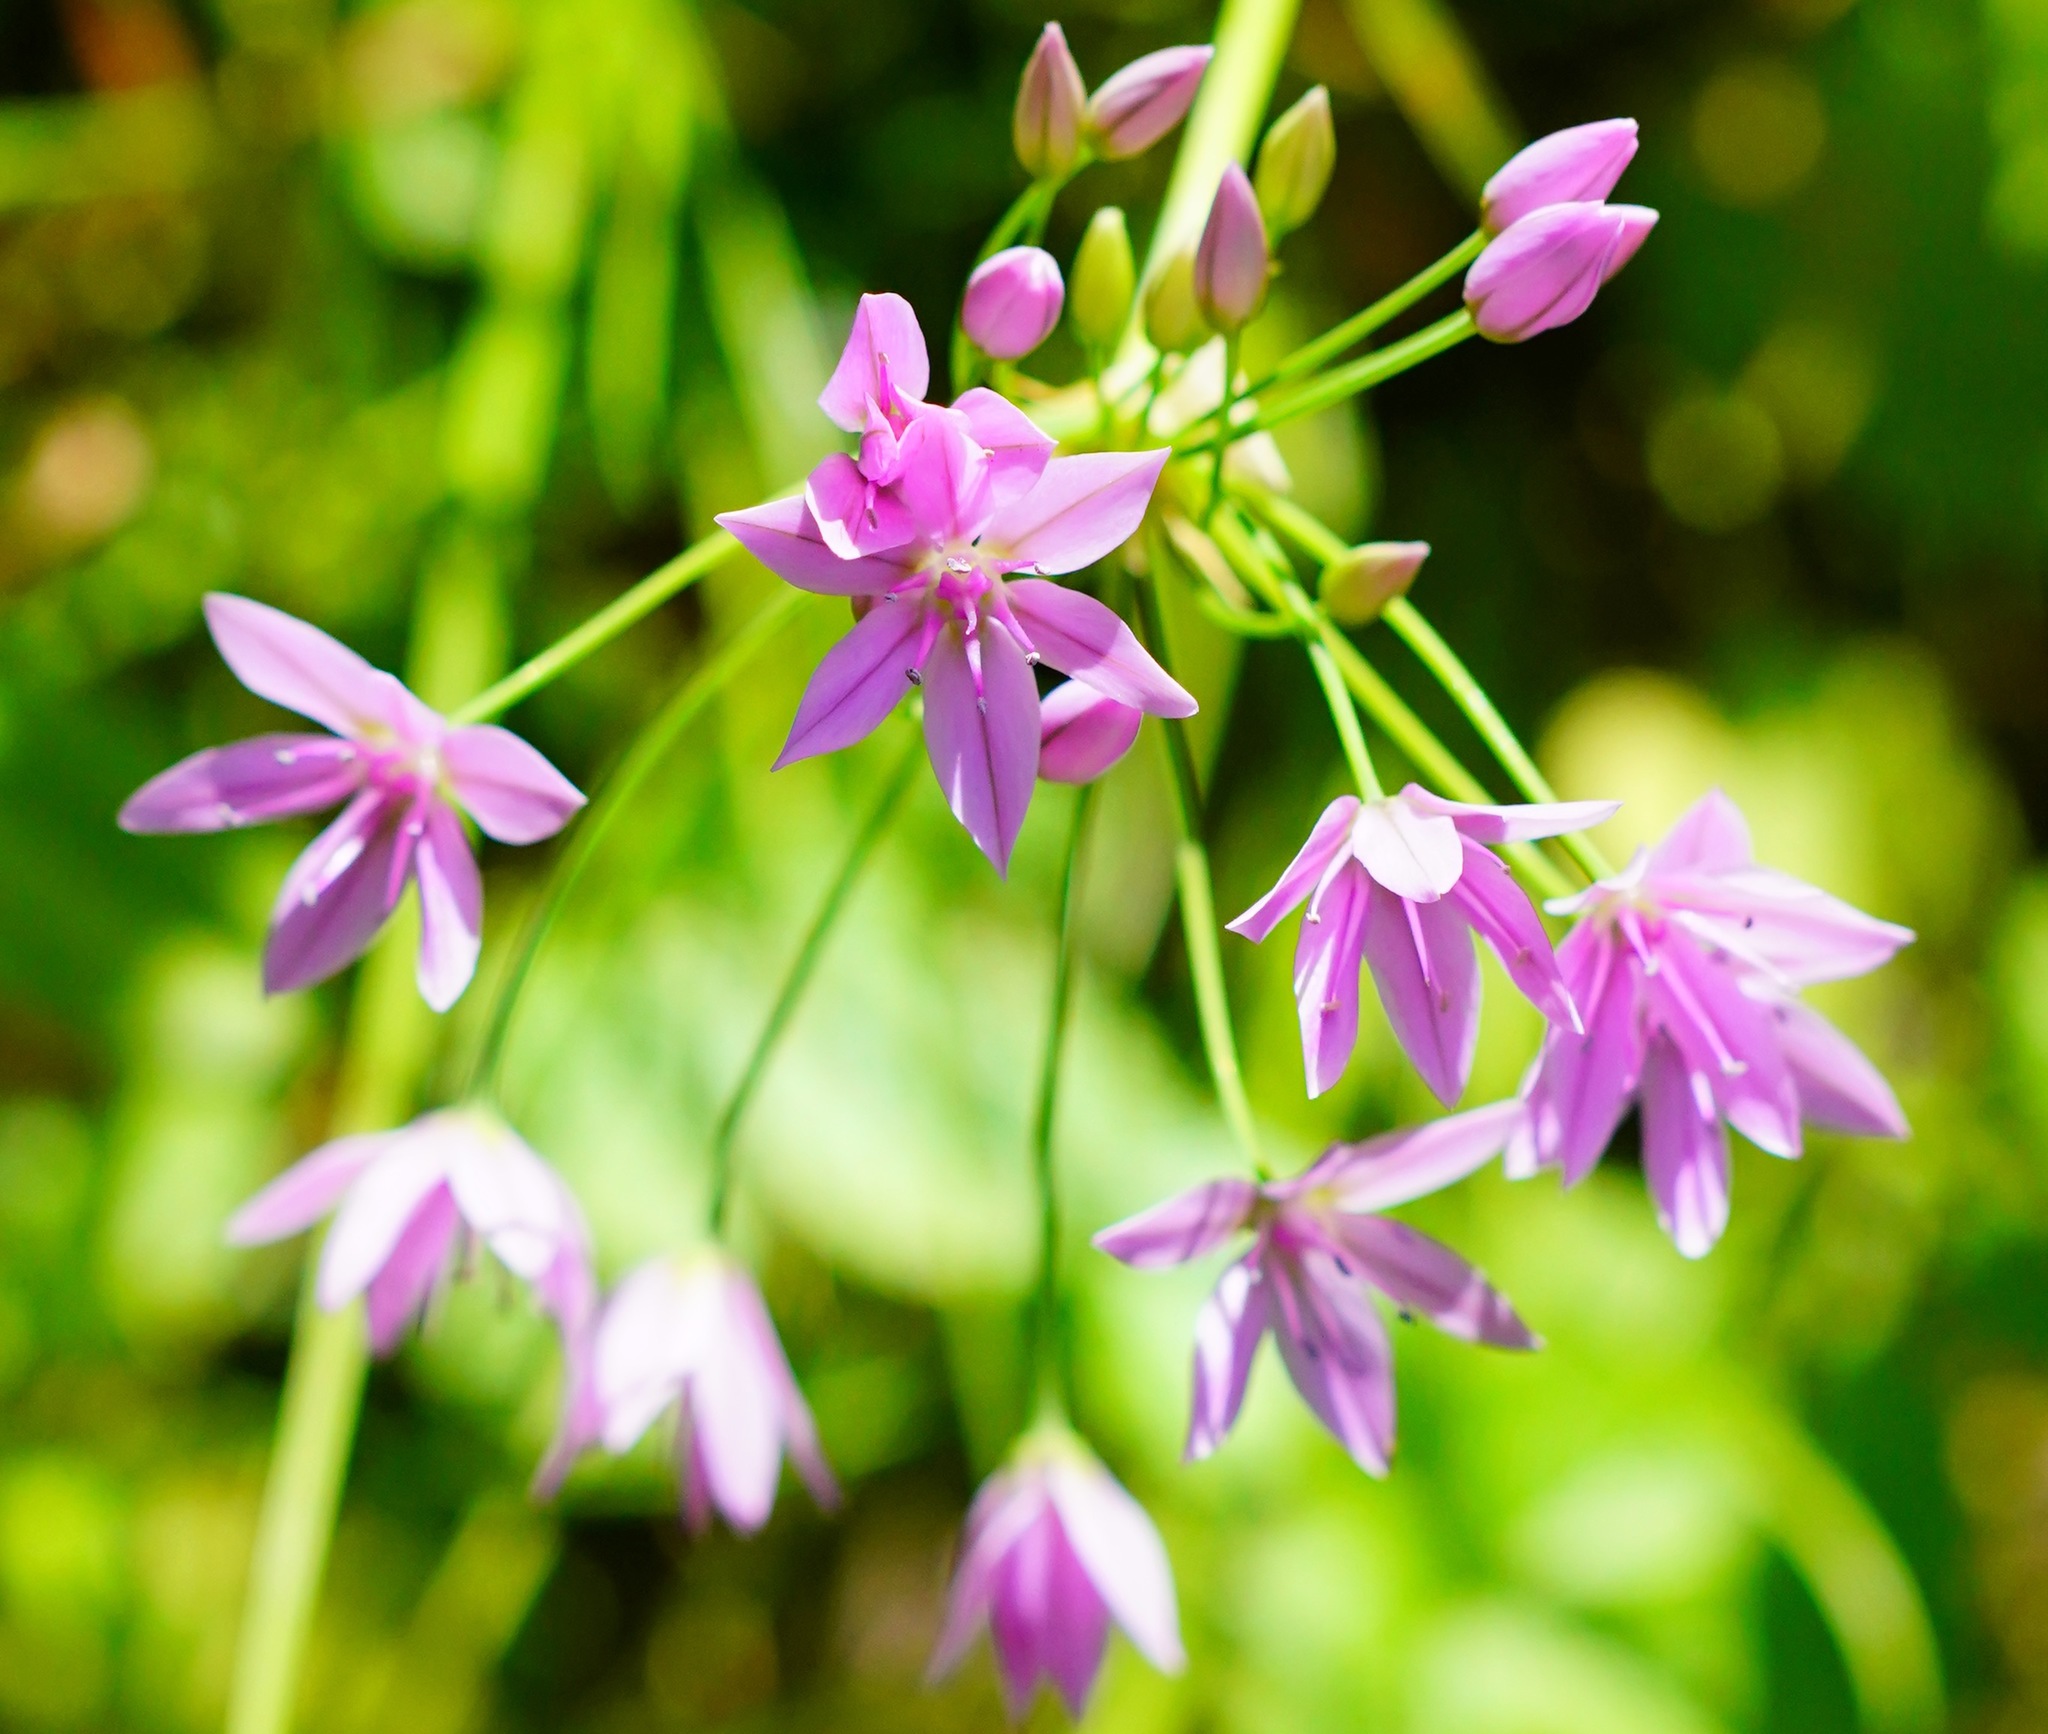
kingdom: Plantae
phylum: Tracheophyta
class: Liliopsida
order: Asparagales
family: Amaryllidaceae
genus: Allium
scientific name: Allium unifolium
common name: American garlic
